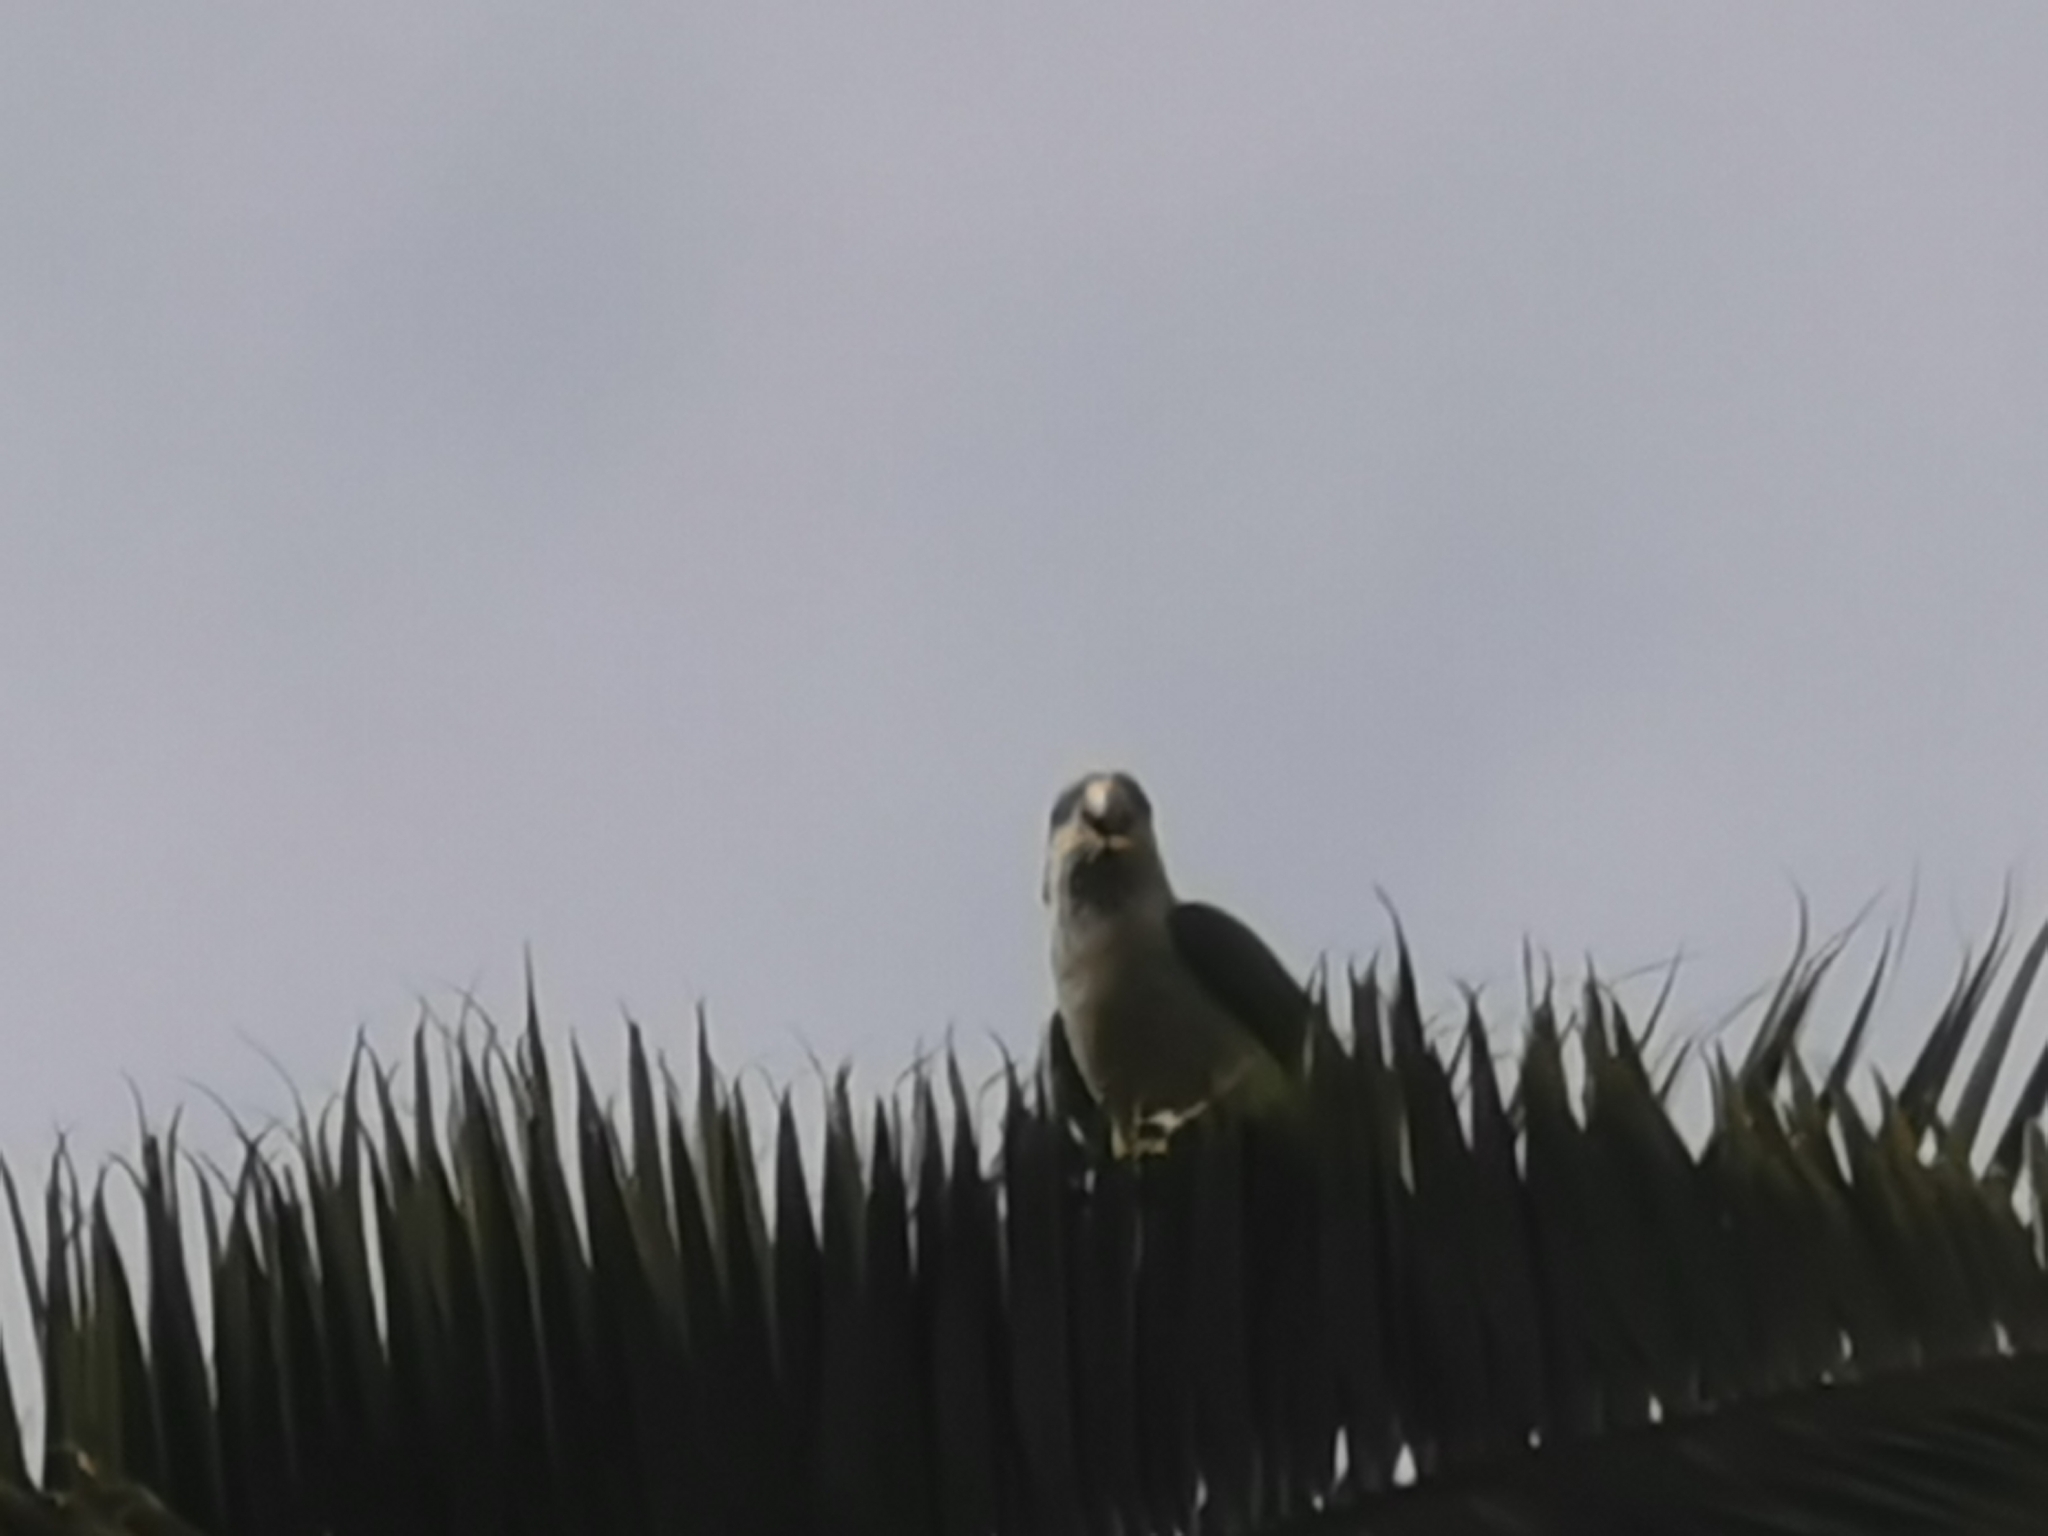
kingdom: Animalia
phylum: Chordata
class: Aves
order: Psittaciformes
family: Psittacidae
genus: Myiopsitta
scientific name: Myiopsitta monachus
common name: Monk parakeet
